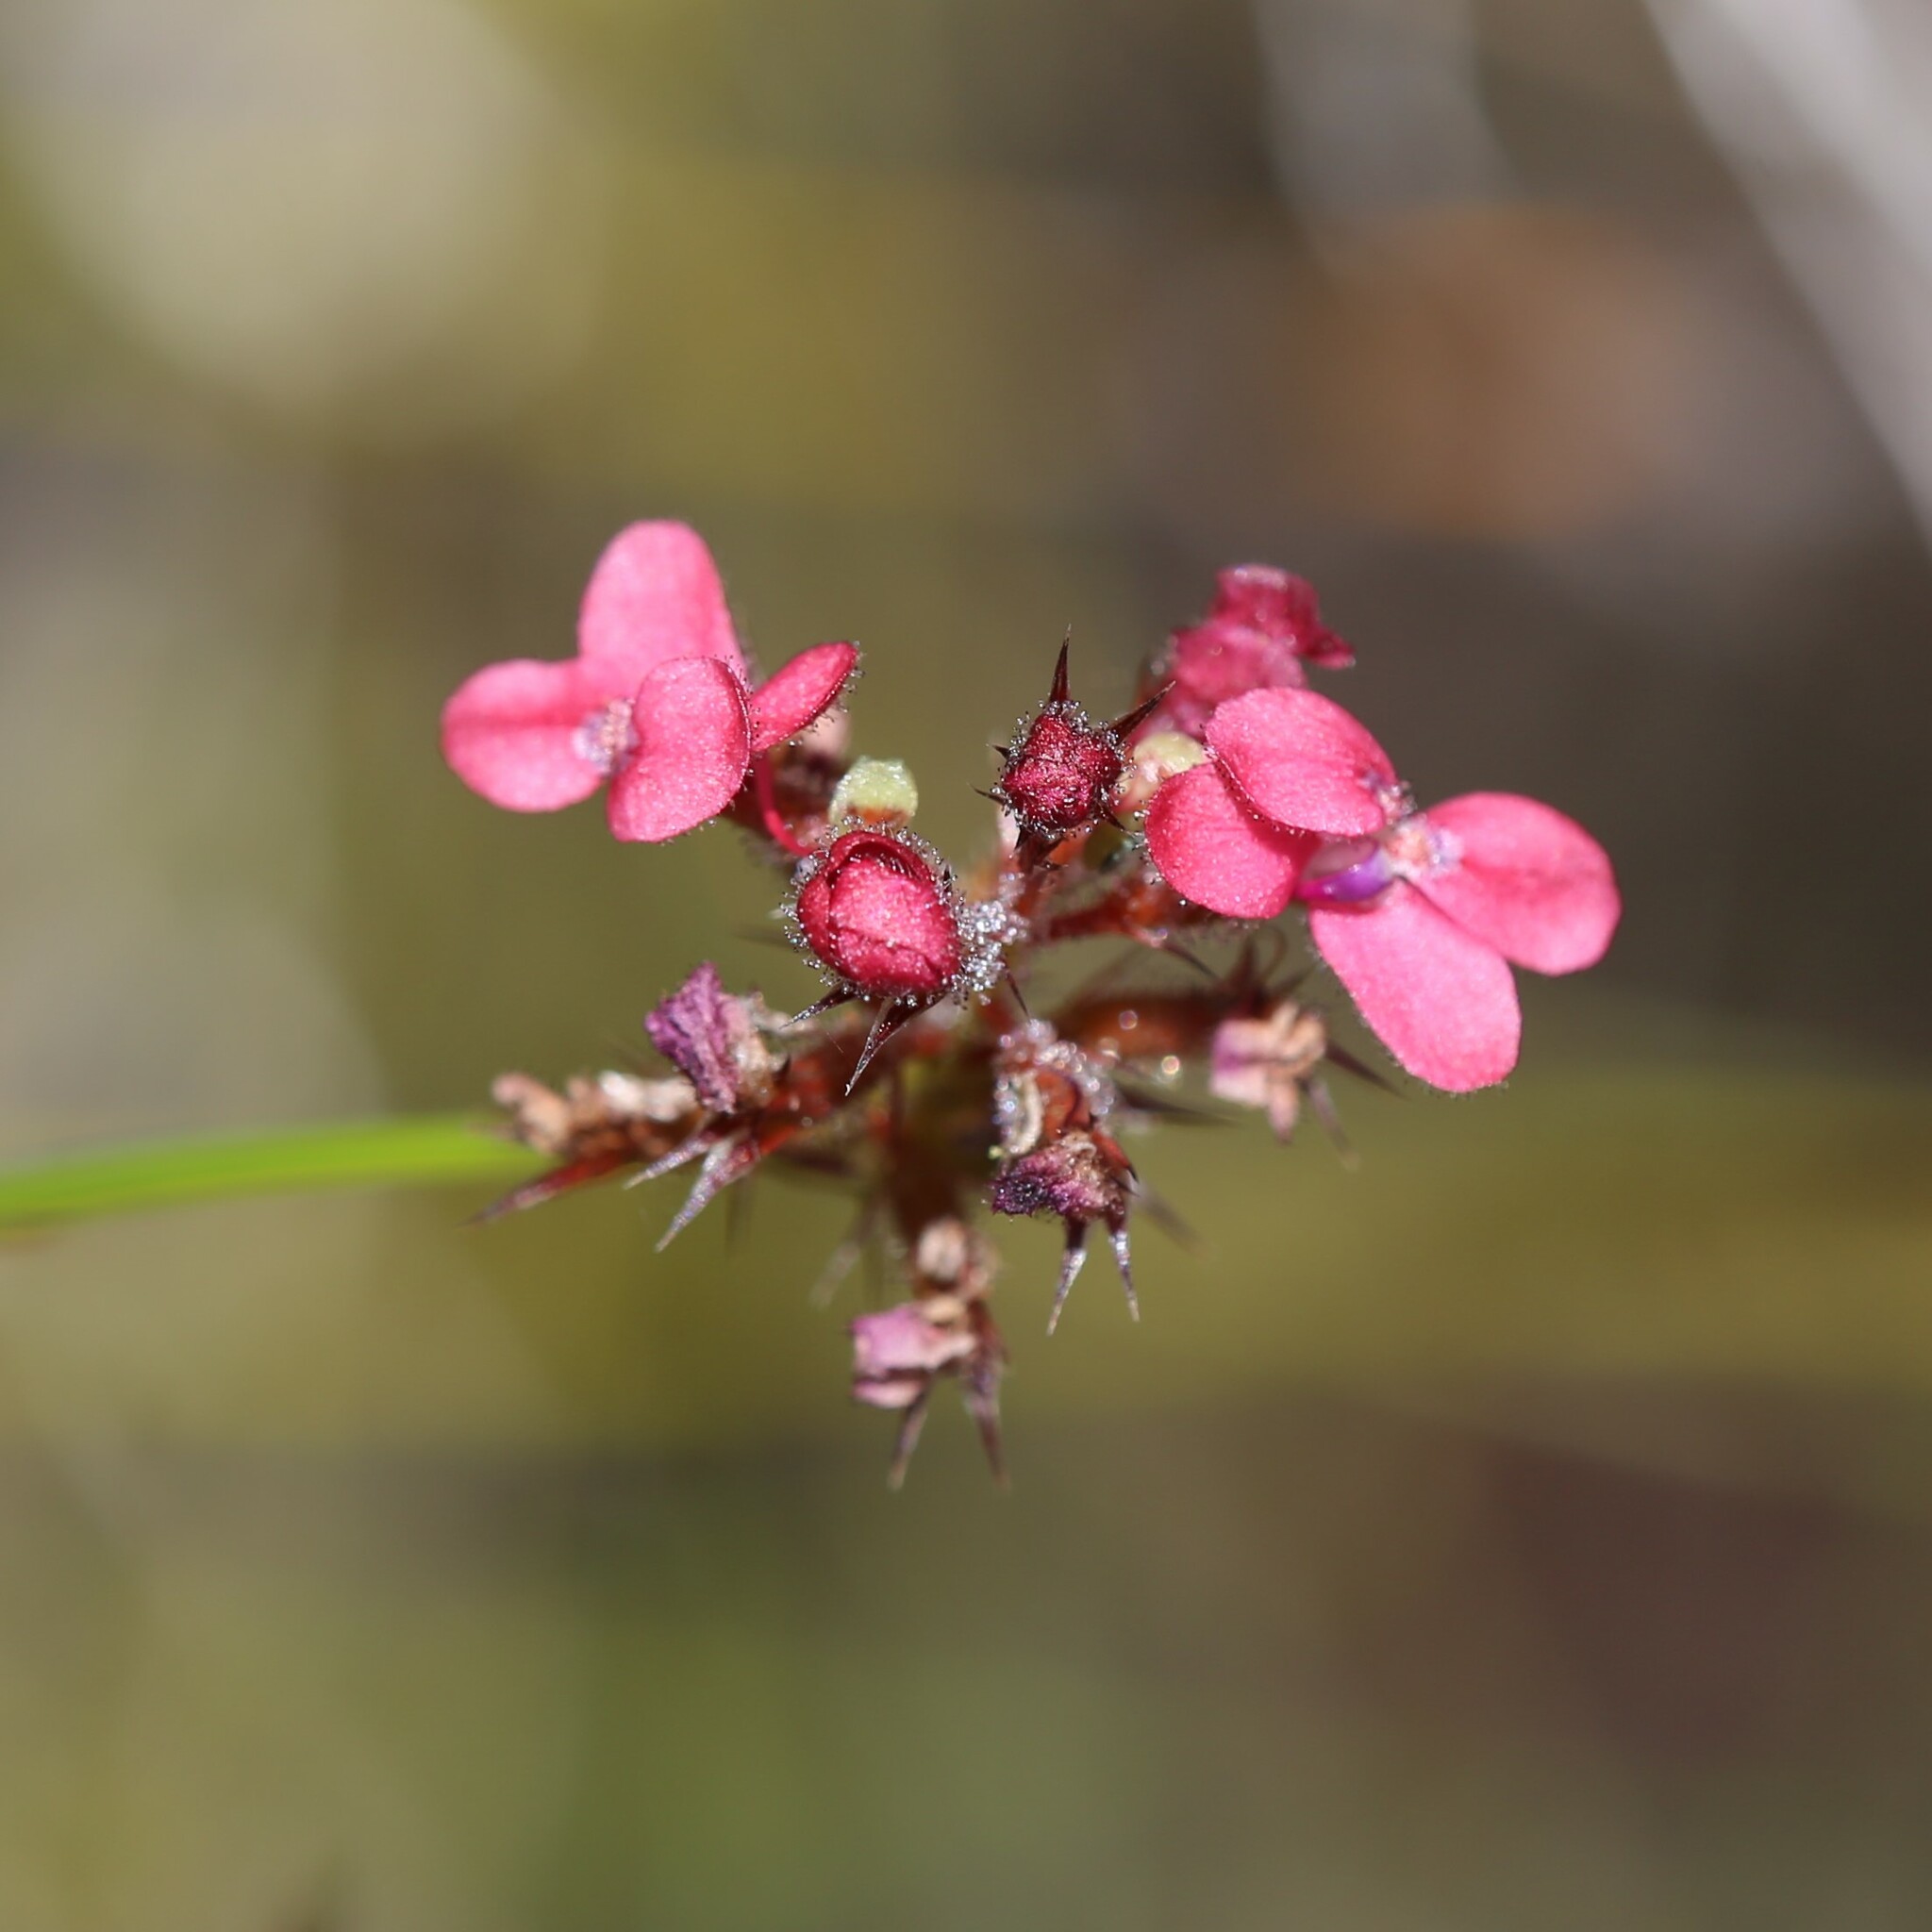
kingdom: Plantae
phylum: Tracheophyta
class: Magnoliopsida
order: Asterales
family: Stylidiaceae
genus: Stylidium
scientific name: Stylidium squamosotuberosum
